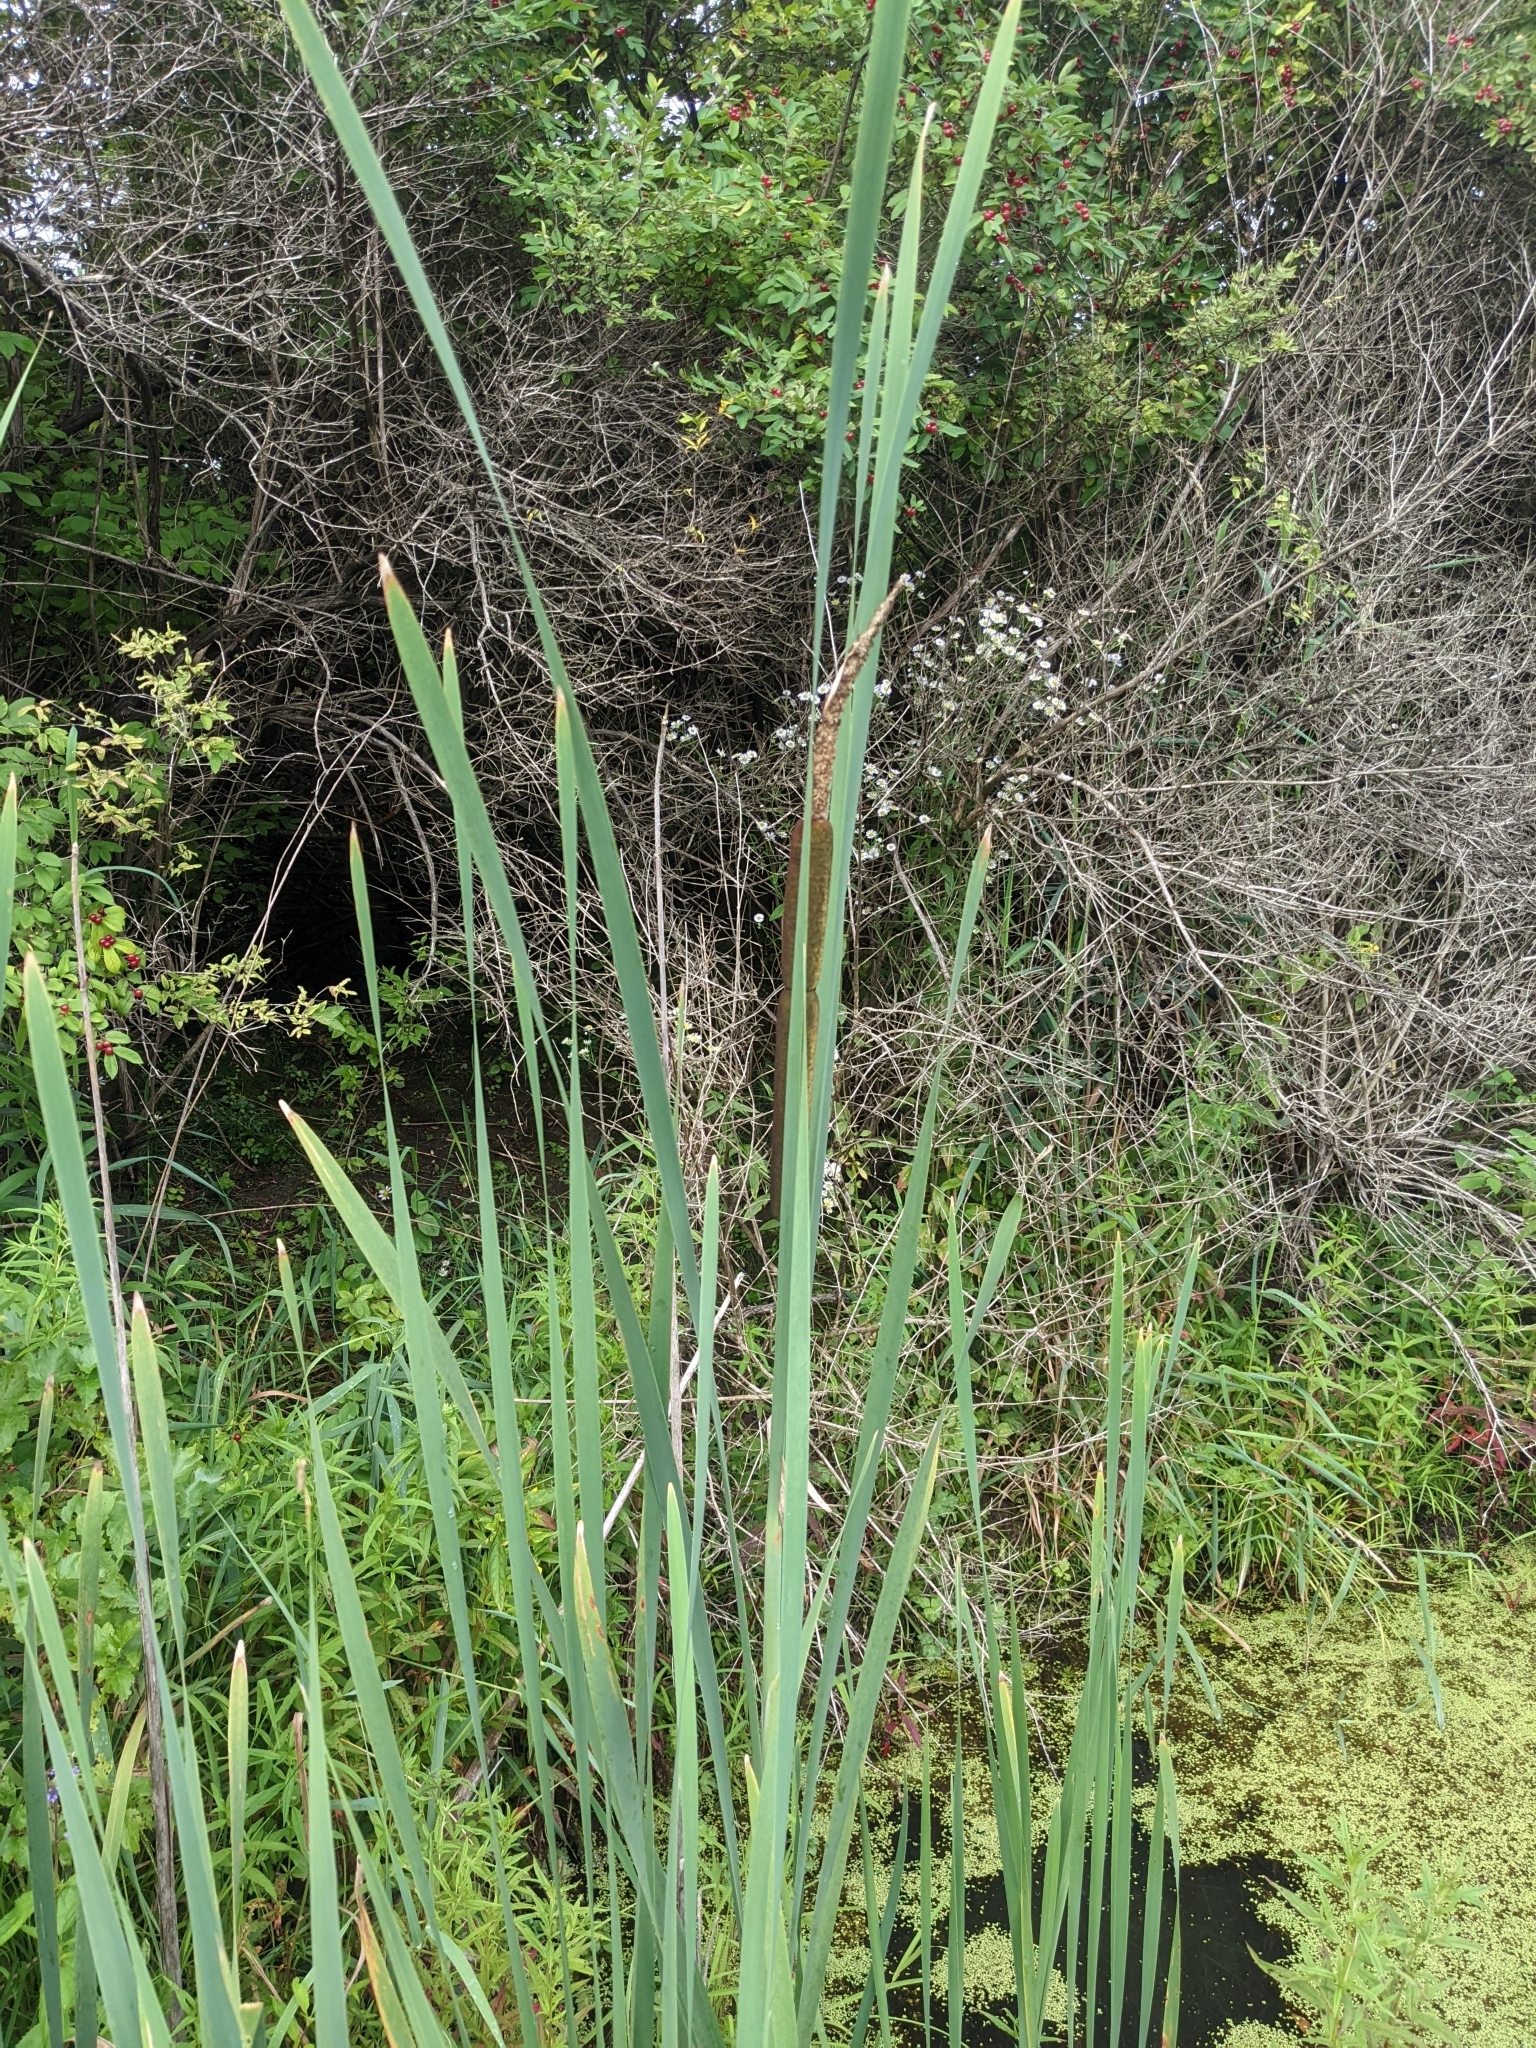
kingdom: Plantae
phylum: Tracheophyta
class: Liliopsida
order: Poales
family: Typhaceae
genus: Typha
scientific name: Typha latifolia
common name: Broadleaf cattail
